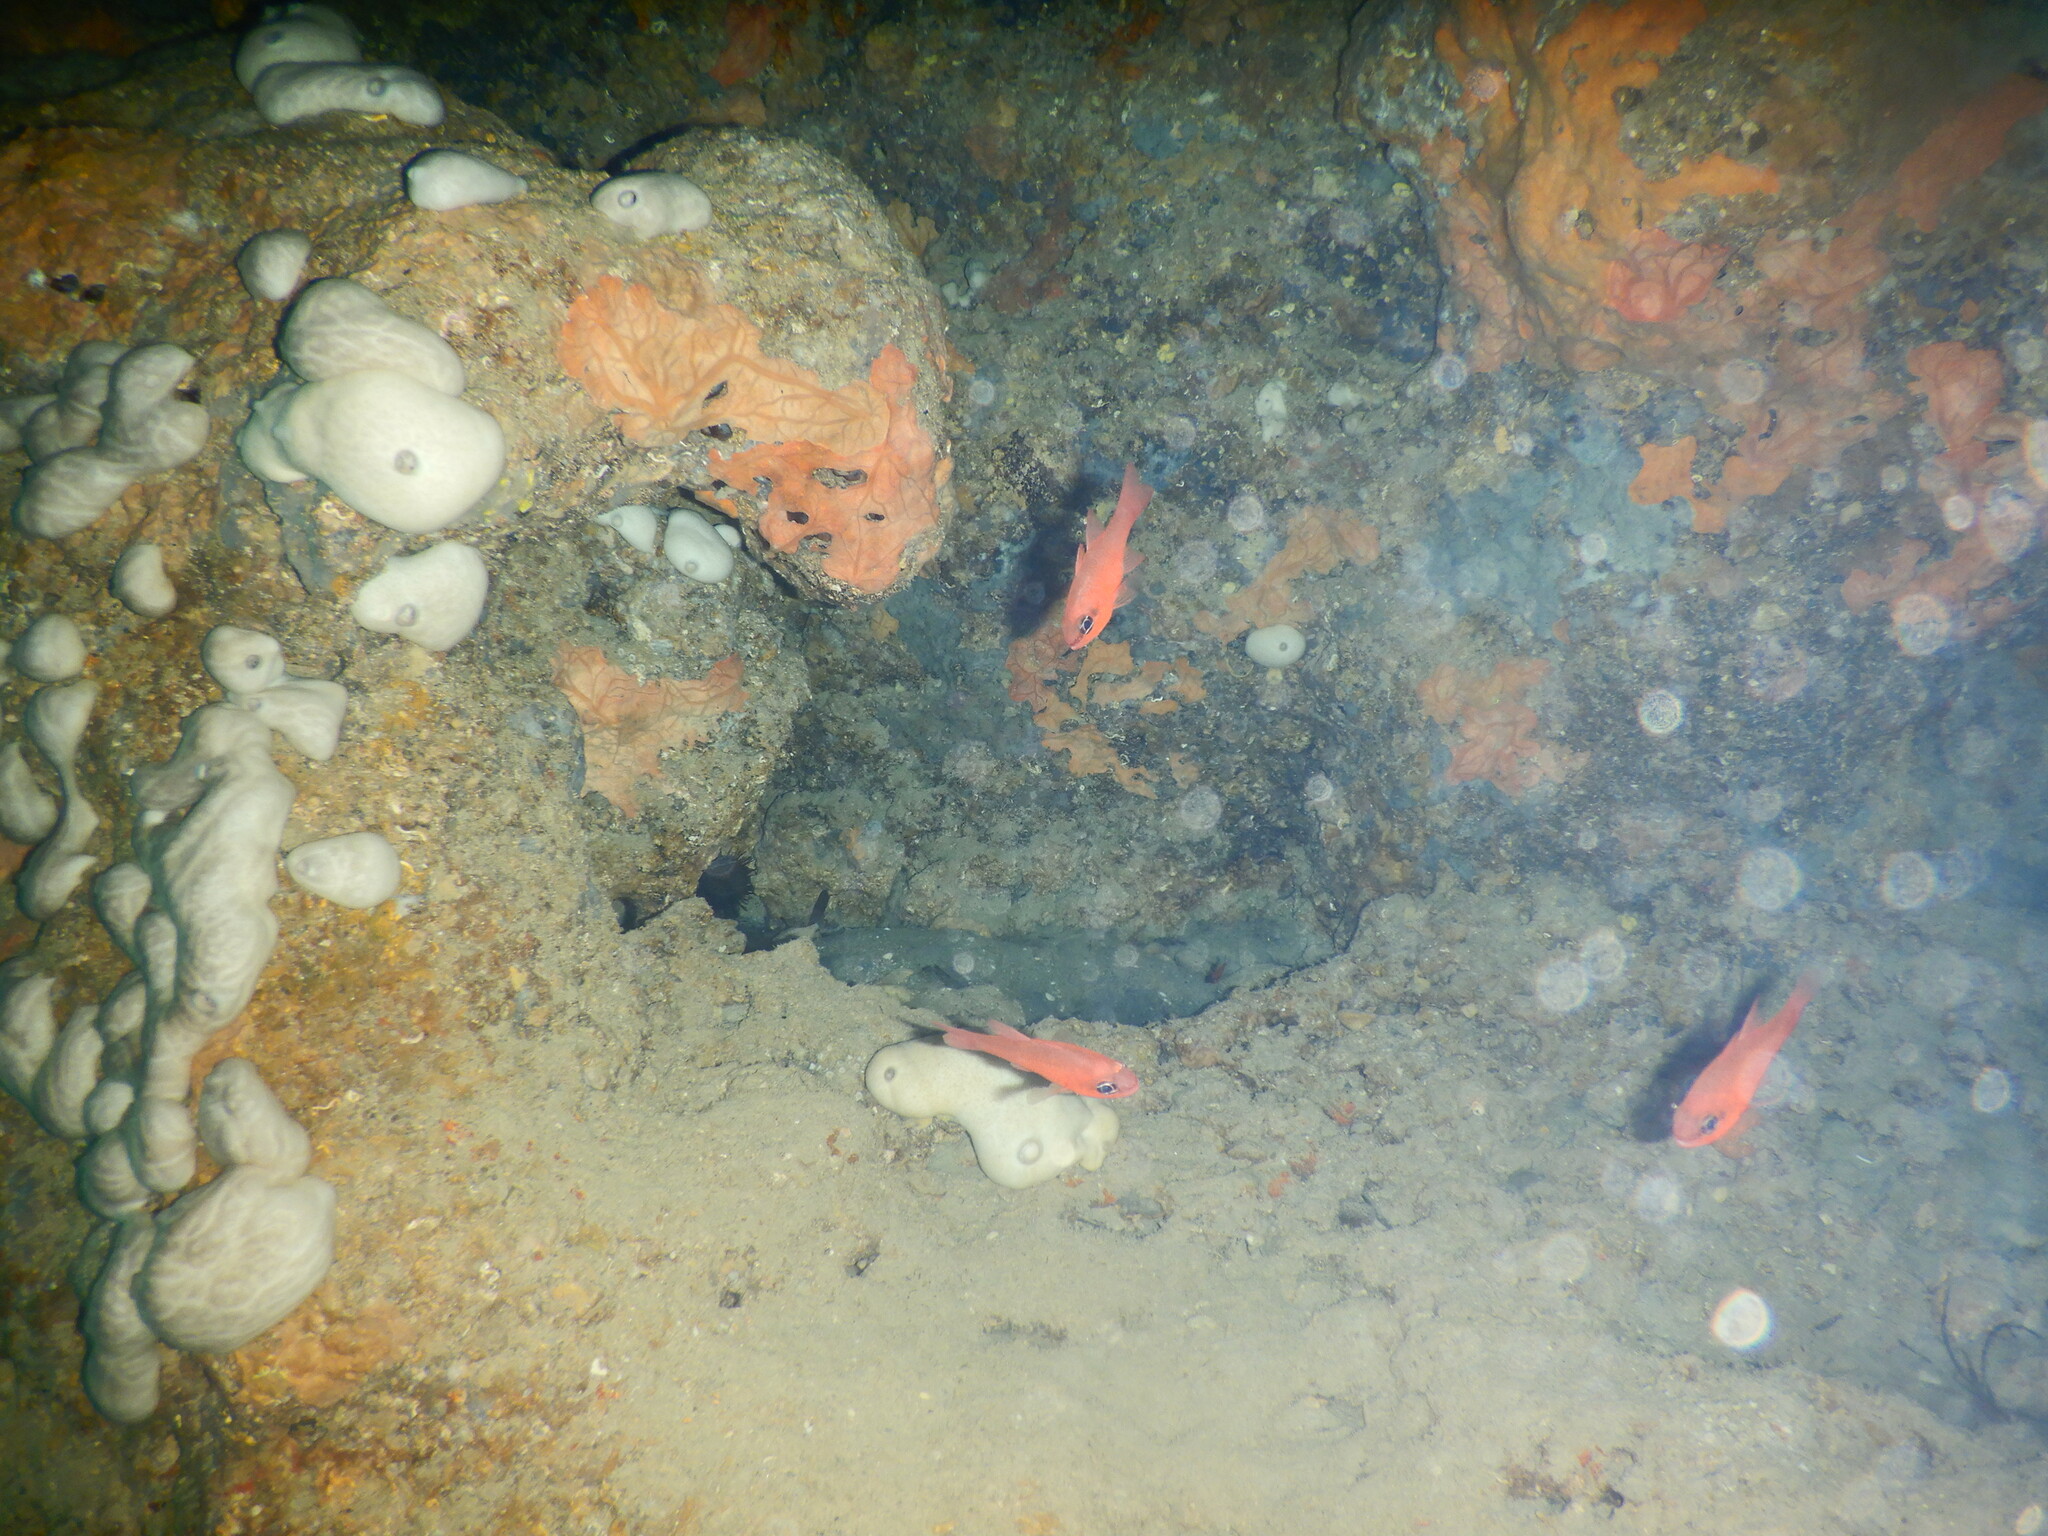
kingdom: Animalia
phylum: Chordata
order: Perciformes
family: Apogonidae
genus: Apogon
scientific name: Apogon imberbis
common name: Cardinal fish
